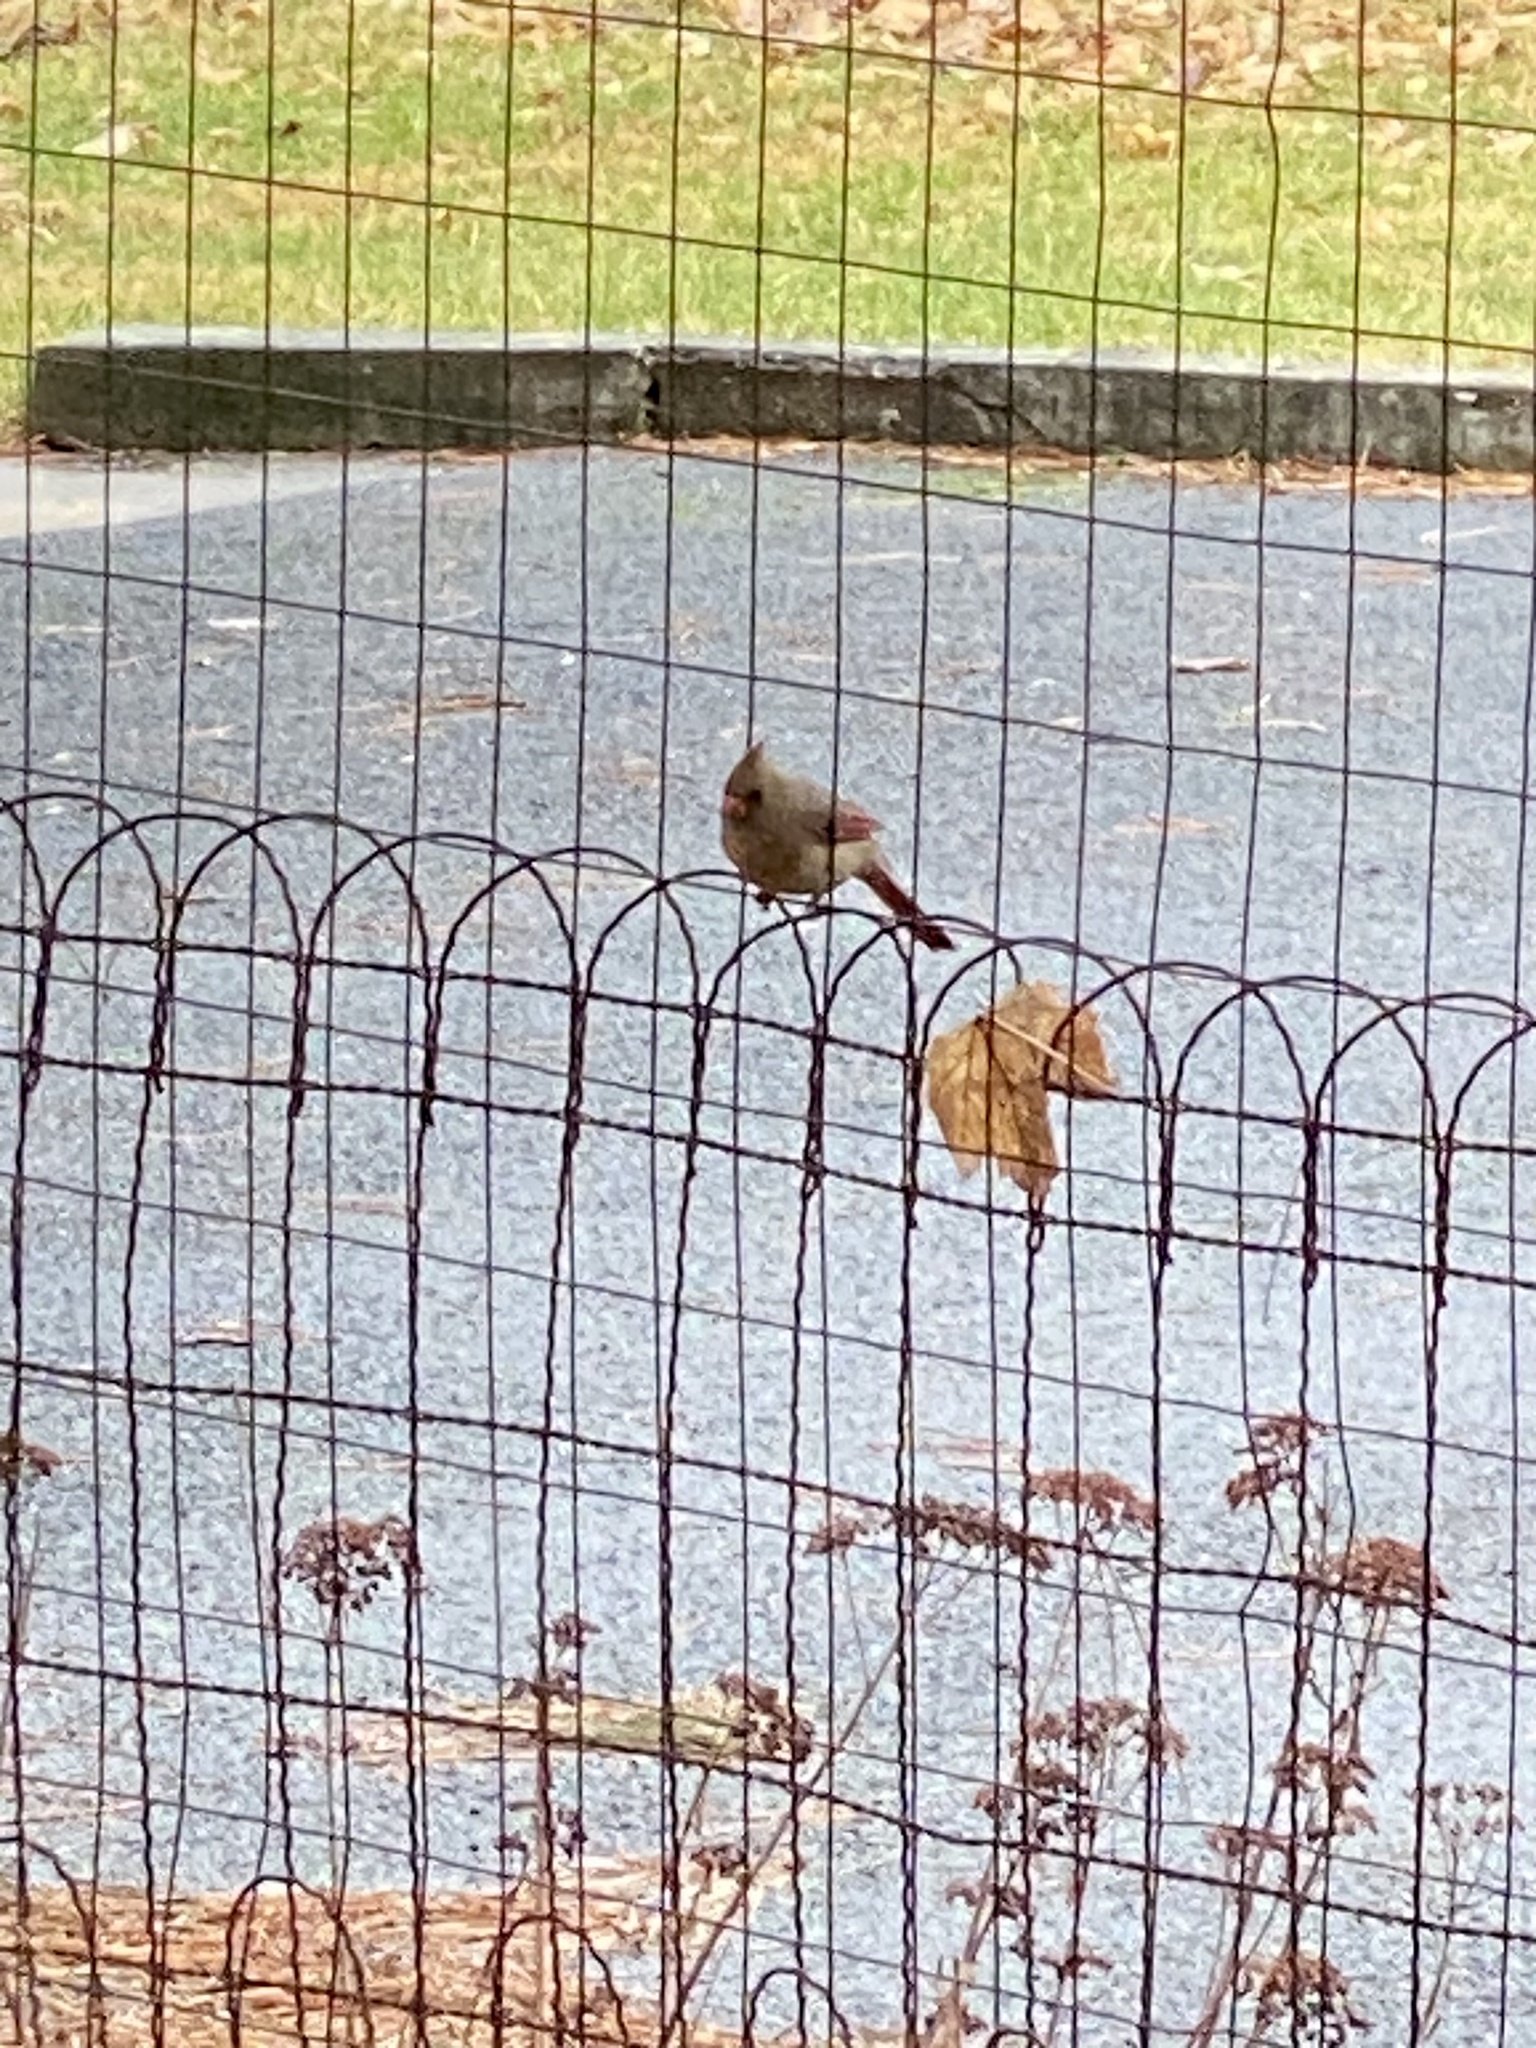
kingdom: Animalia
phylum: Chordata
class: Aves
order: Passeriformes
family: Cardinalidae
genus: Cardinalis
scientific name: Cardinalis cardinalis
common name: Northern cardinal
